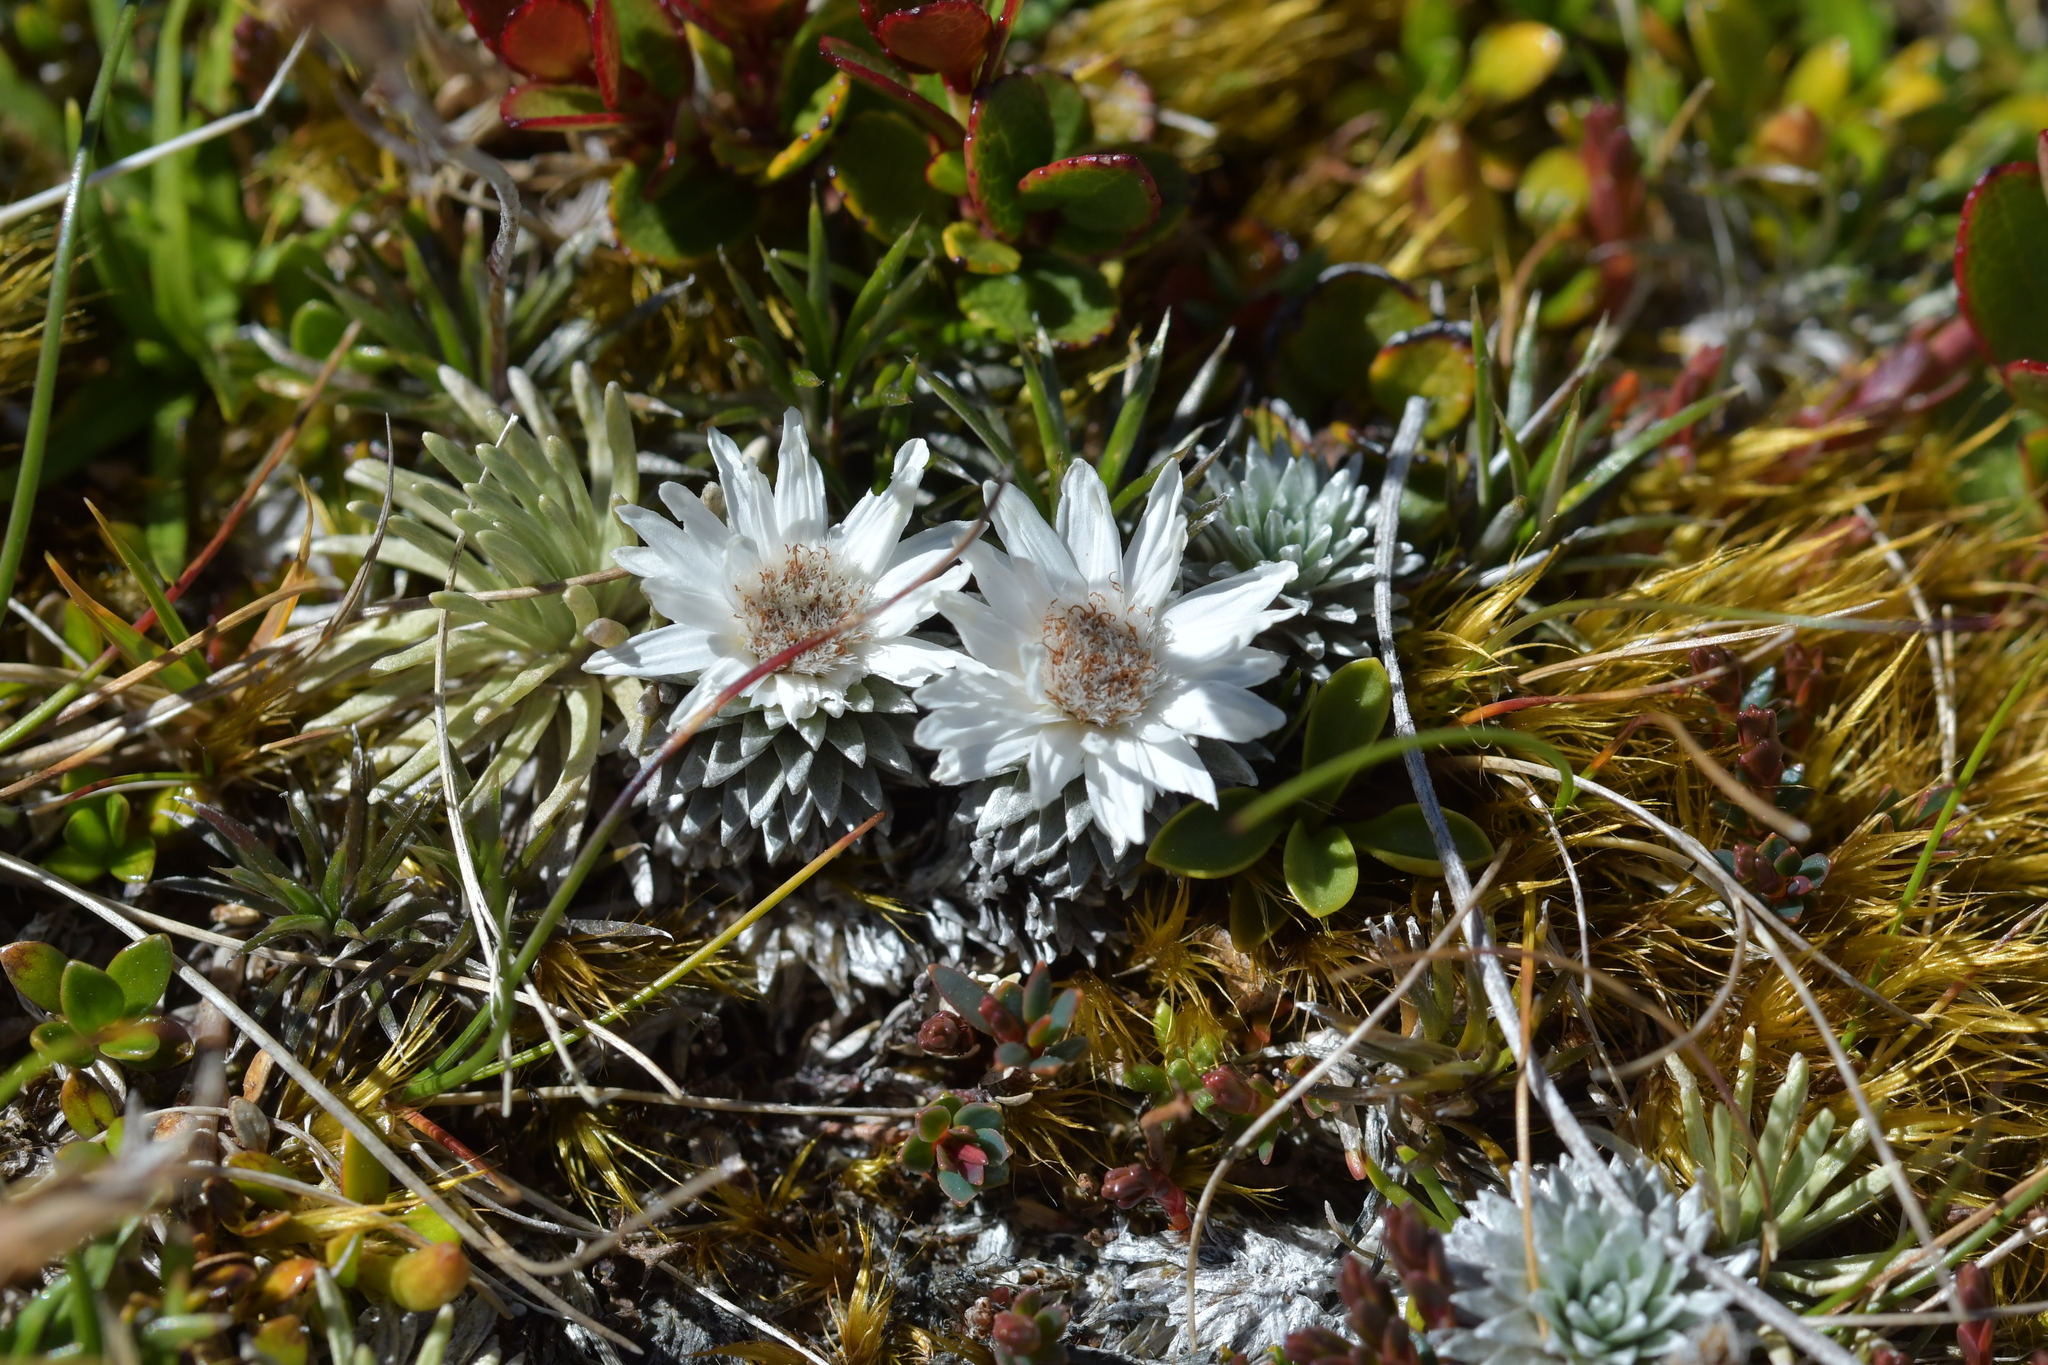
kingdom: Plantae
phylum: Tracheophyta
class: Magnoliopsida
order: Asterales
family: Asteraceae
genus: Raoulia
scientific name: Raoulia grandiflora
